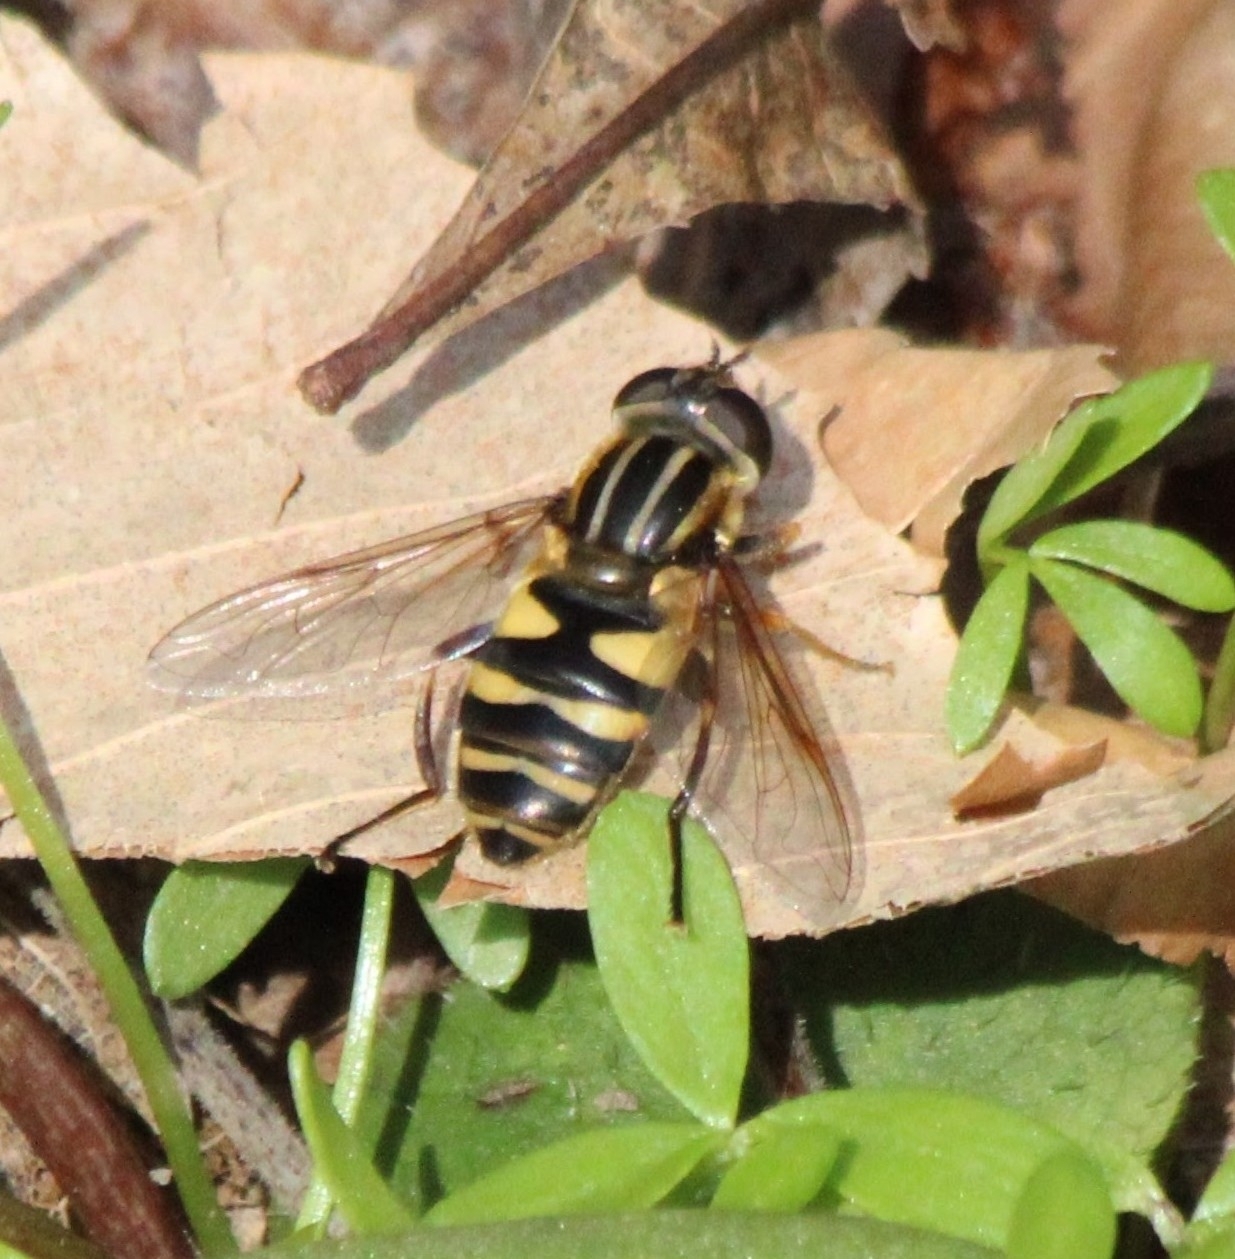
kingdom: Animalia
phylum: Arthropoda
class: Insecta
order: Diptera
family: Syrphidae
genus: Helophilus
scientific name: Helophilus fasciatus
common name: Narrow-headed marsh fly
